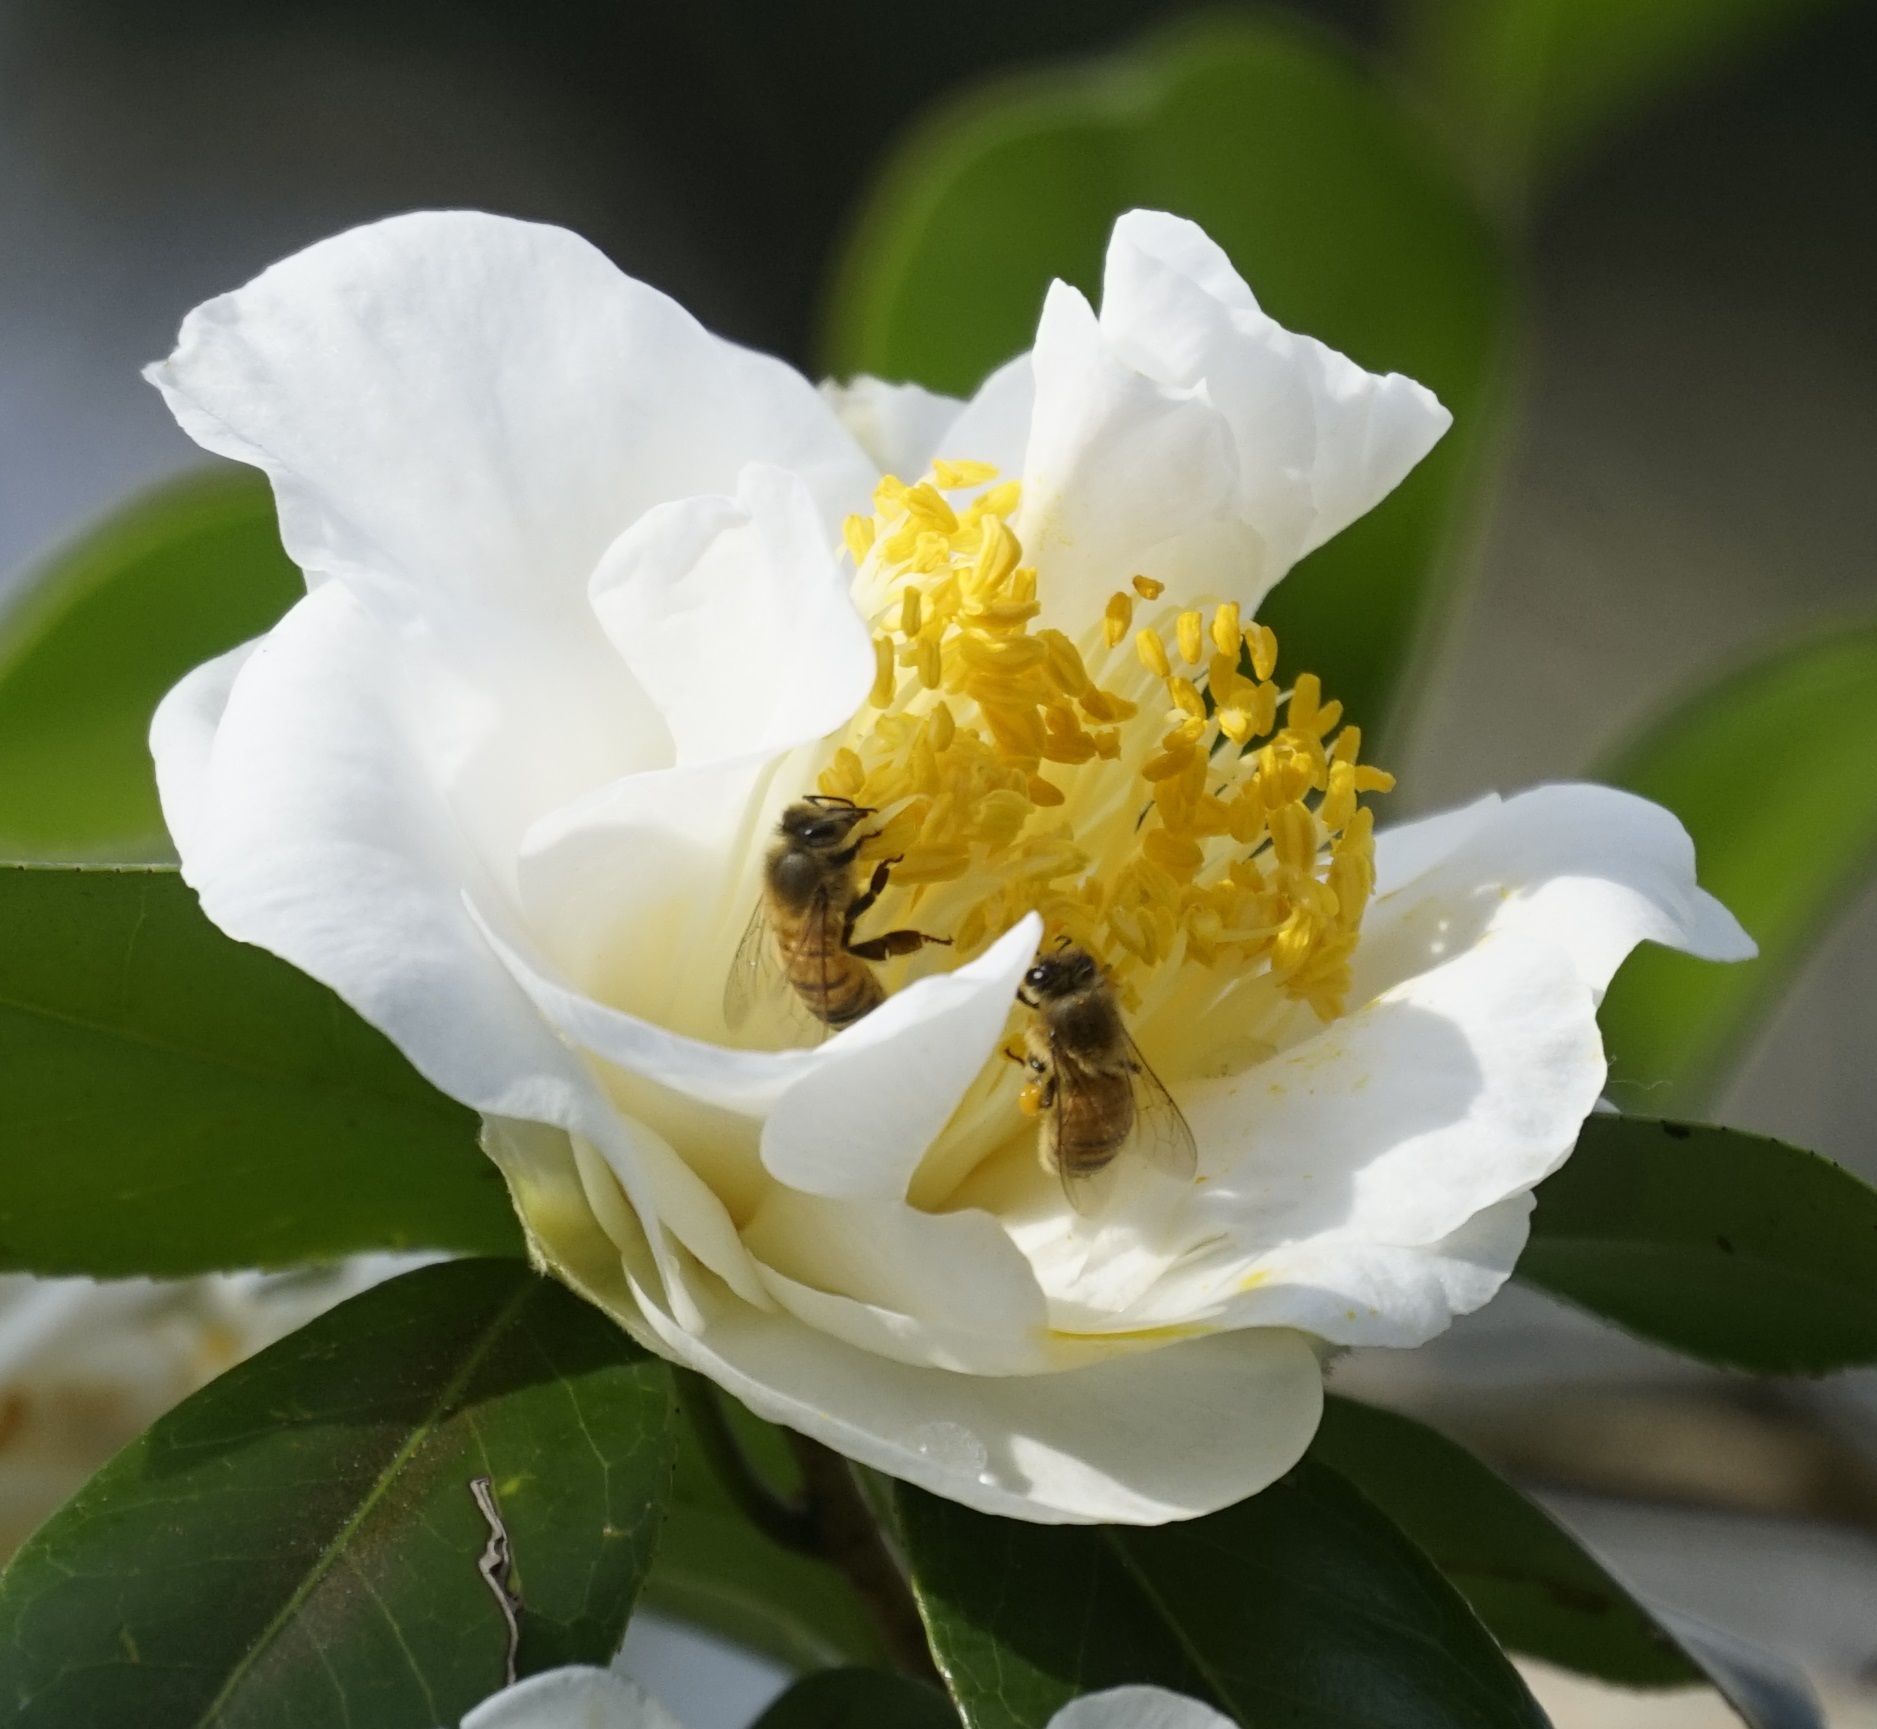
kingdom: Animalia
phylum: Arthropoda
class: Insecta
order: Hymenoptera
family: Apidae
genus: Apis
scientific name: Apis mellifera
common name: Honey bee
